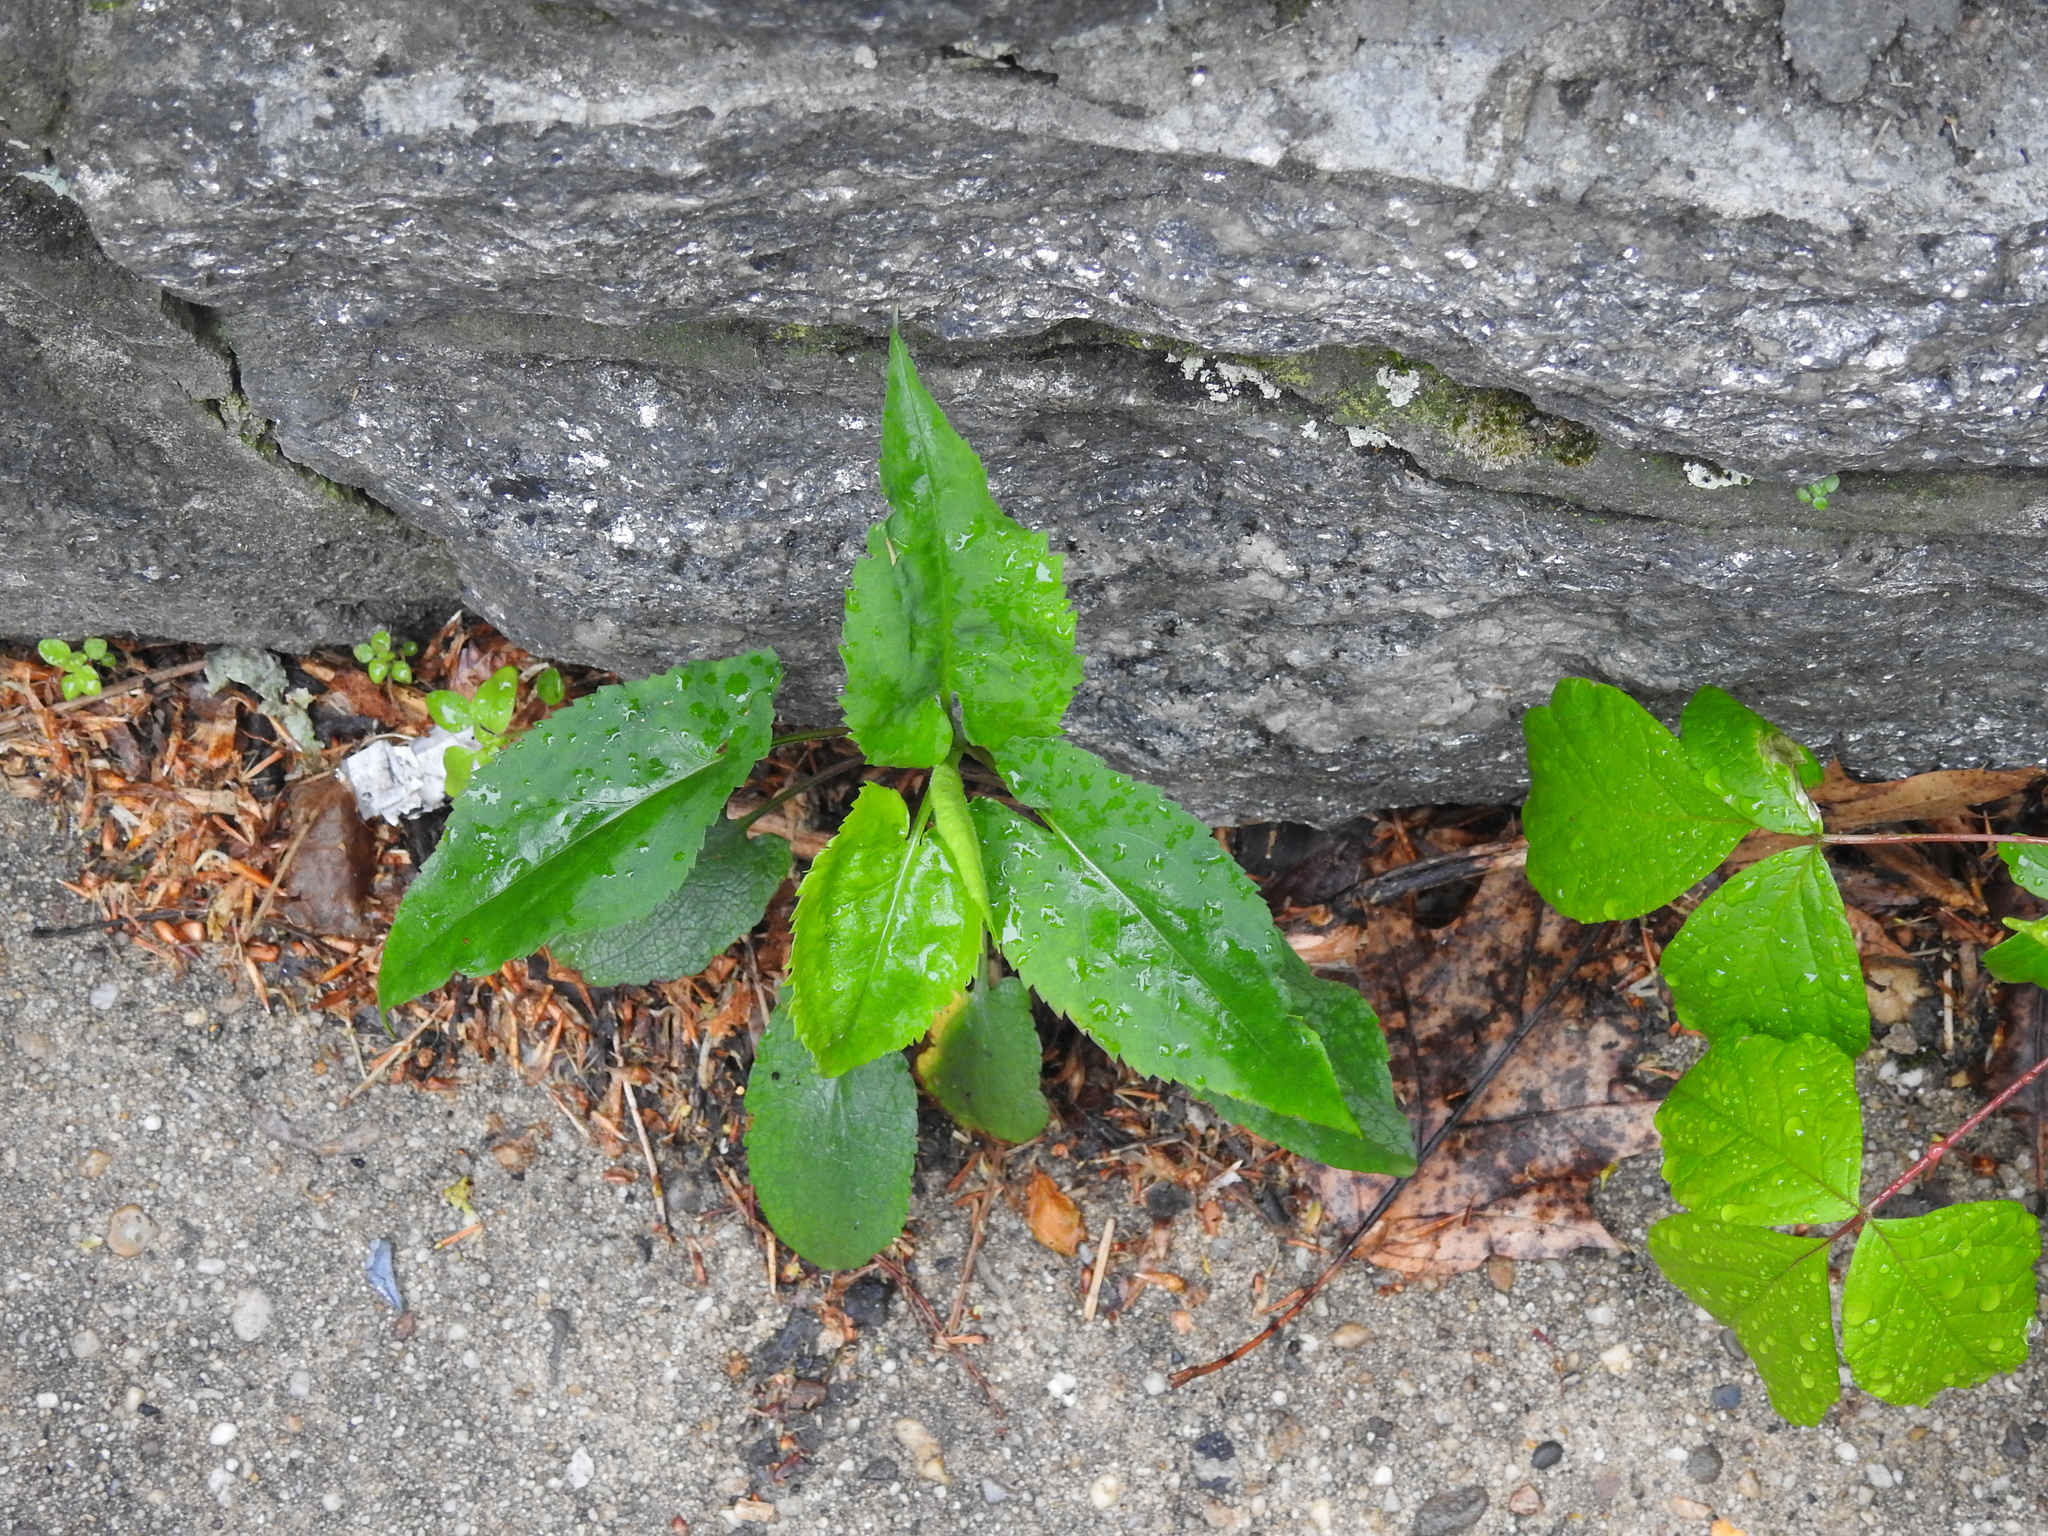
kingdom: Plantae
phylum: Tracheophyta
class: Magnoliopsida
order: Asterales
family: Asteraceae
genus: Symphyotrichum
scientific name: Symphyotrichum cordifolium
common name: Beeweed
